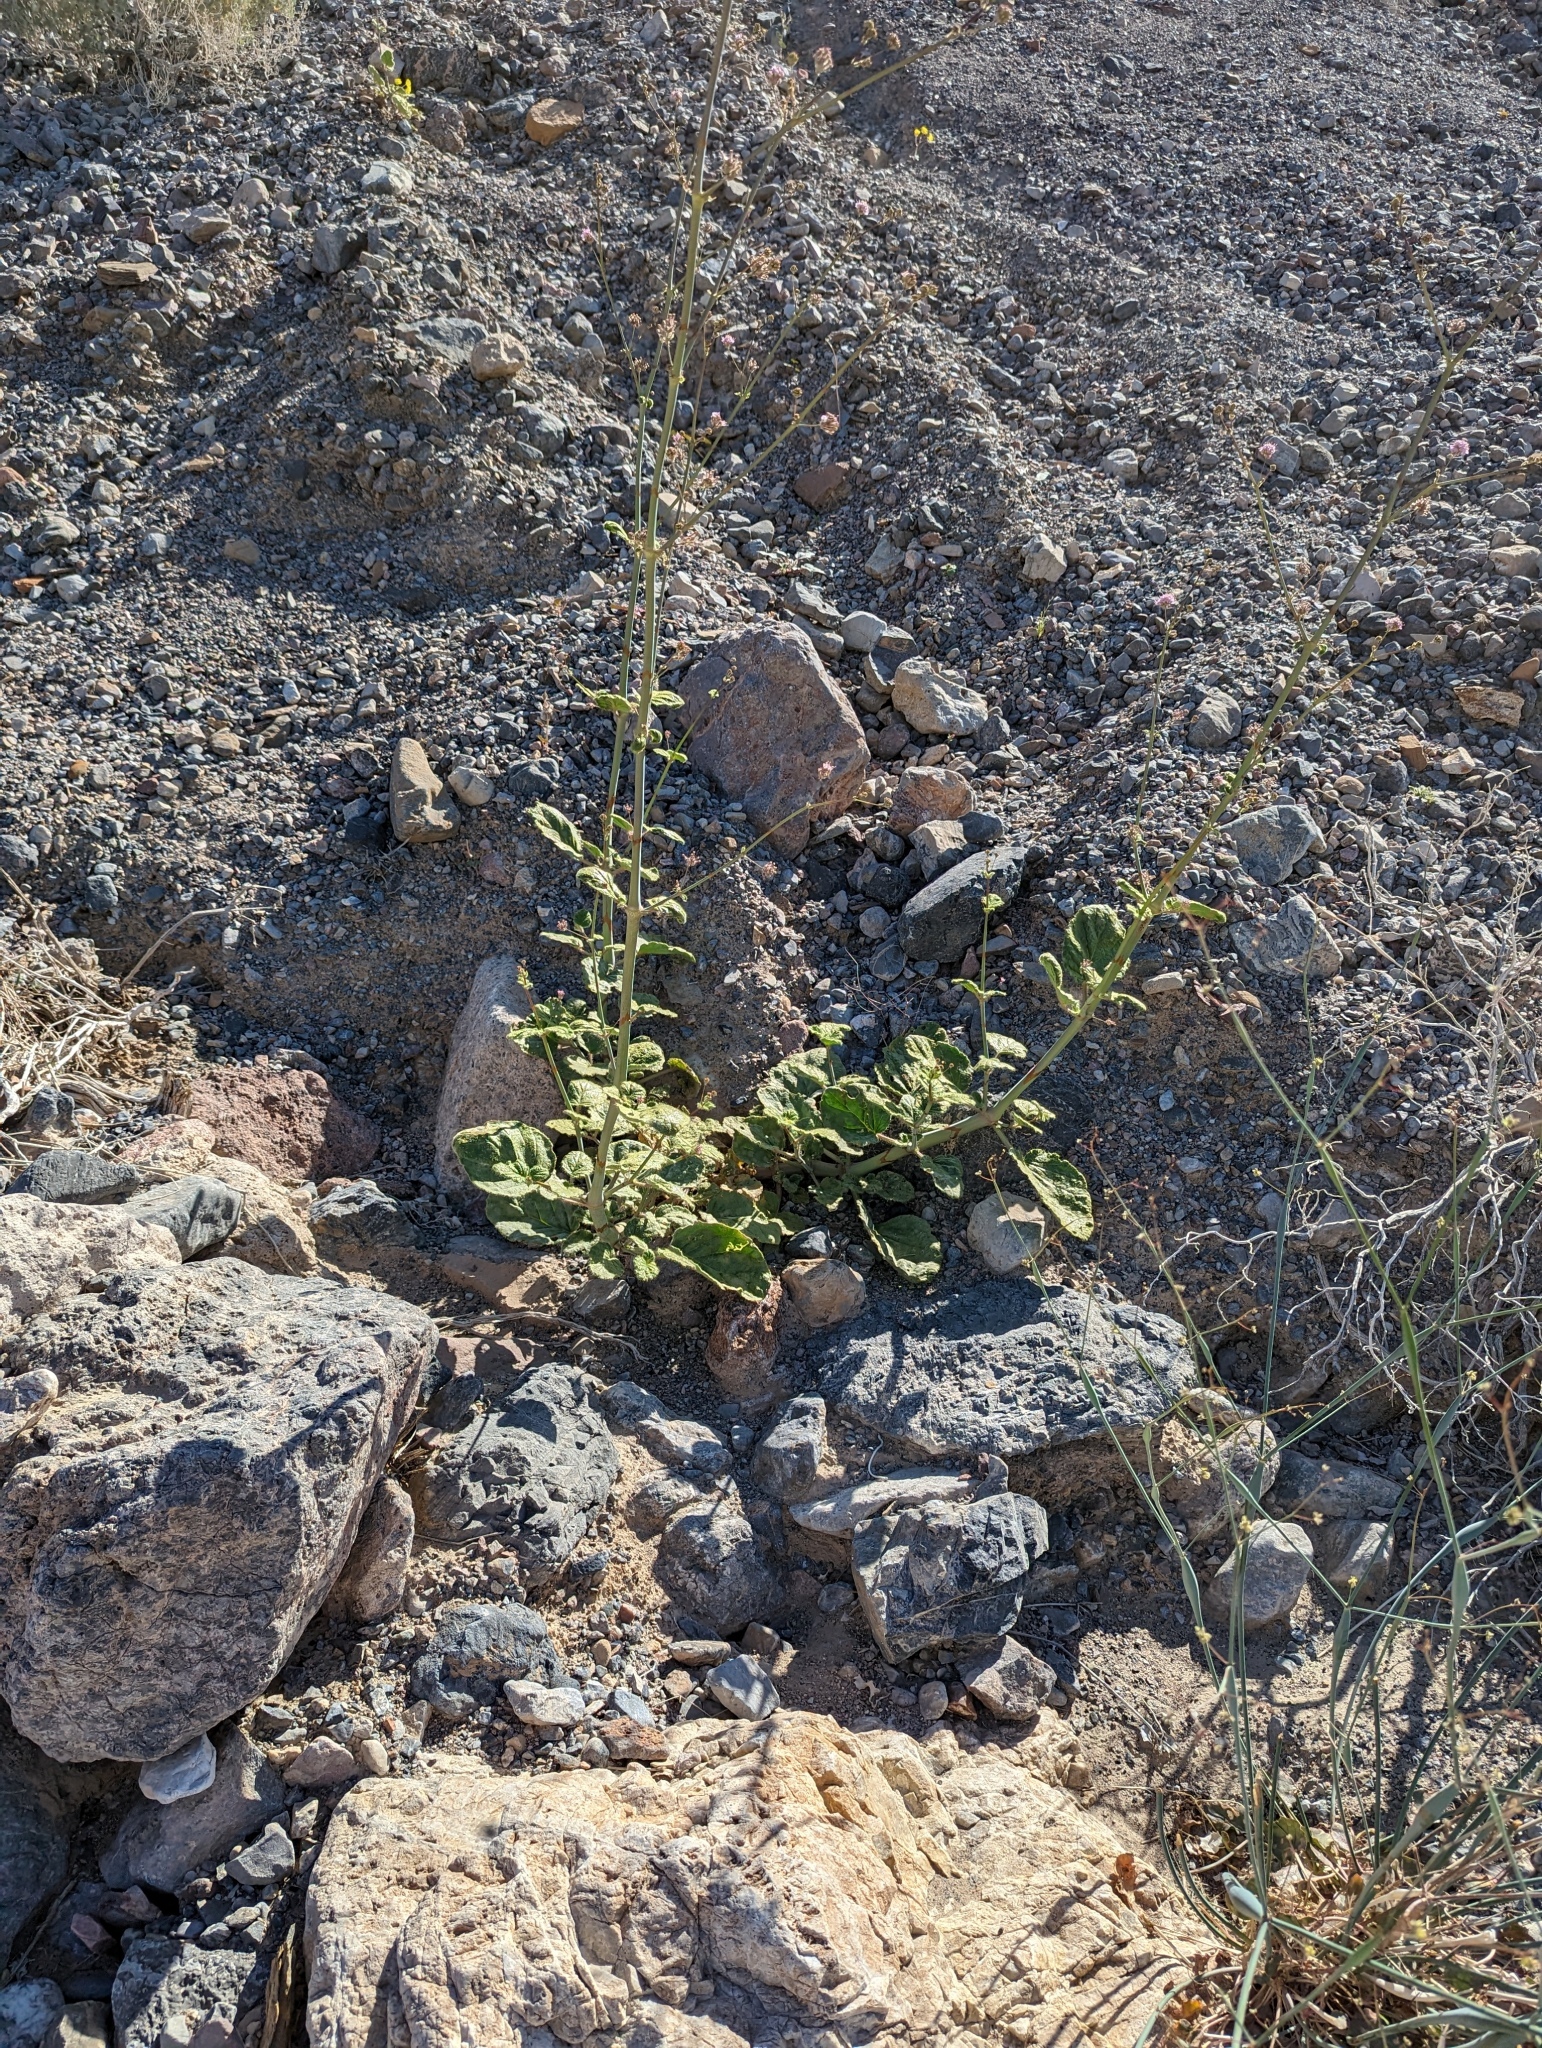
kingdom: Plantae
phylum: Tracheophyta
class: Magnoliopsida
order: Caryophyllales
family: Nyctaginaceae
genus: Anulocaulis
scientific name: Anulocaulis annulatus
